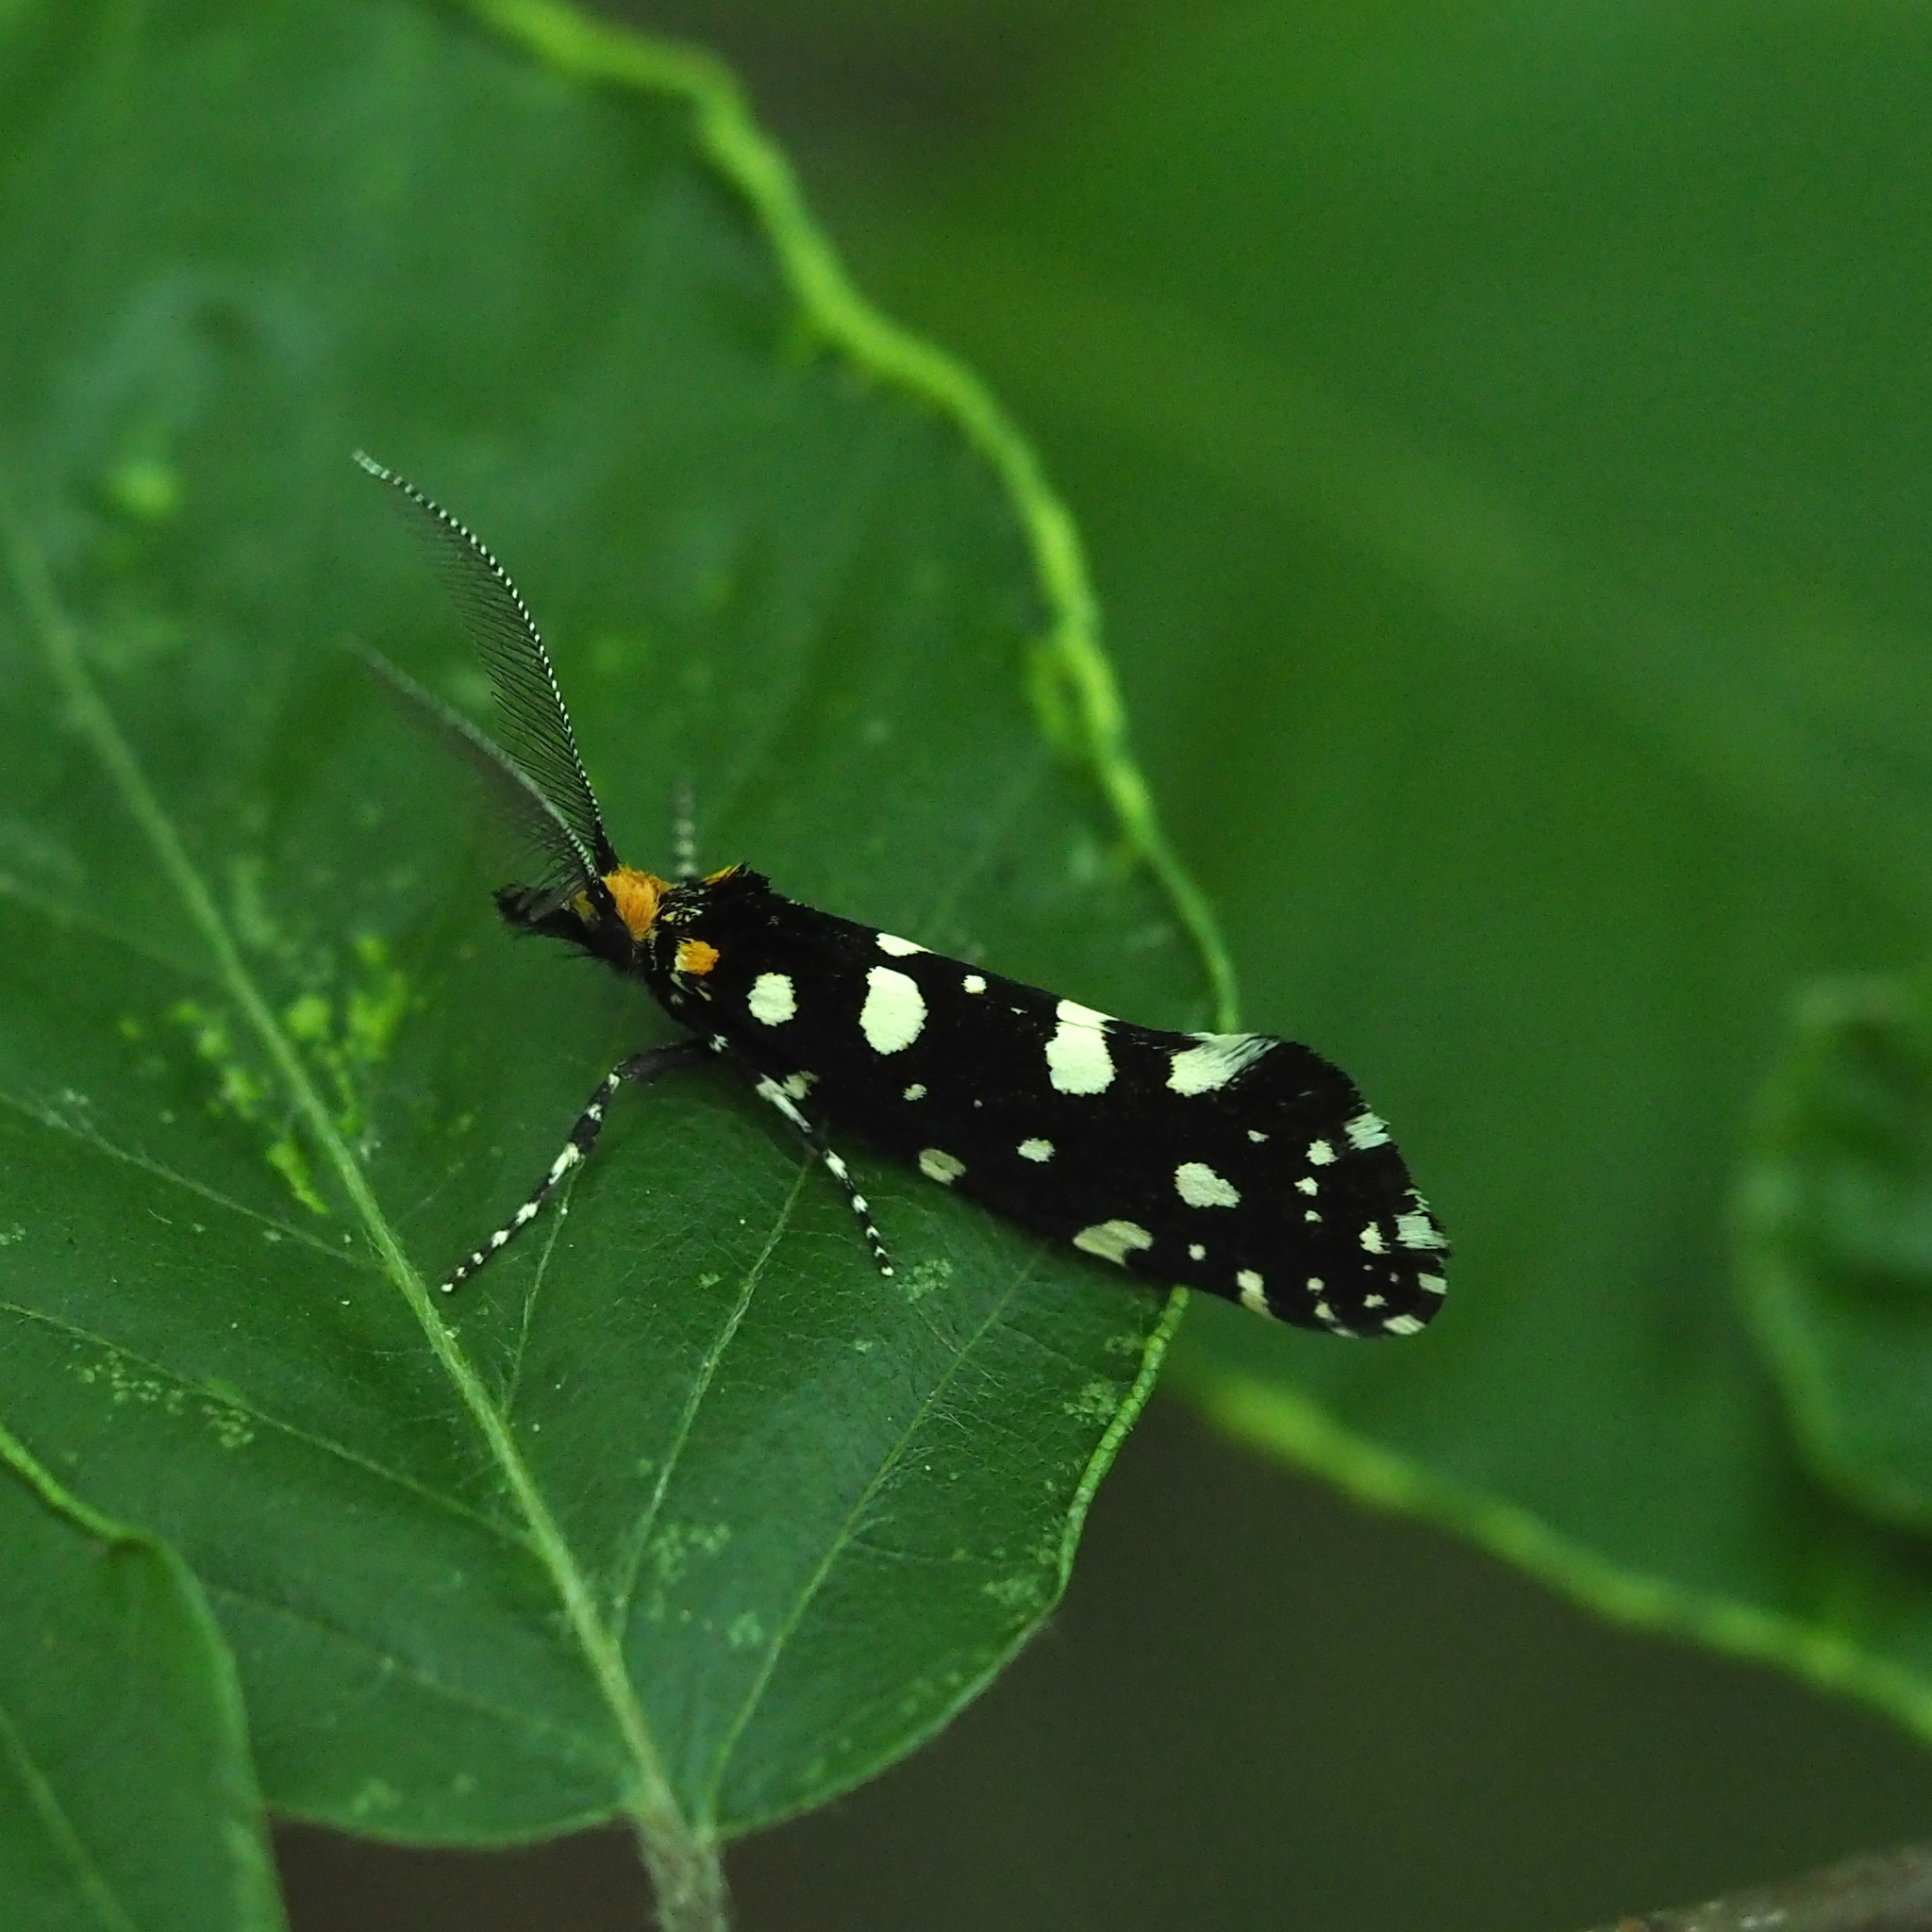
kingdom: Animalia
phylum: Arthropoda
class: Insecta
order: Lepidoptera
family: Tineidae
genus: Euplocamus
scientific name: Euplocamus anthracinalis
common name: Black clothes
